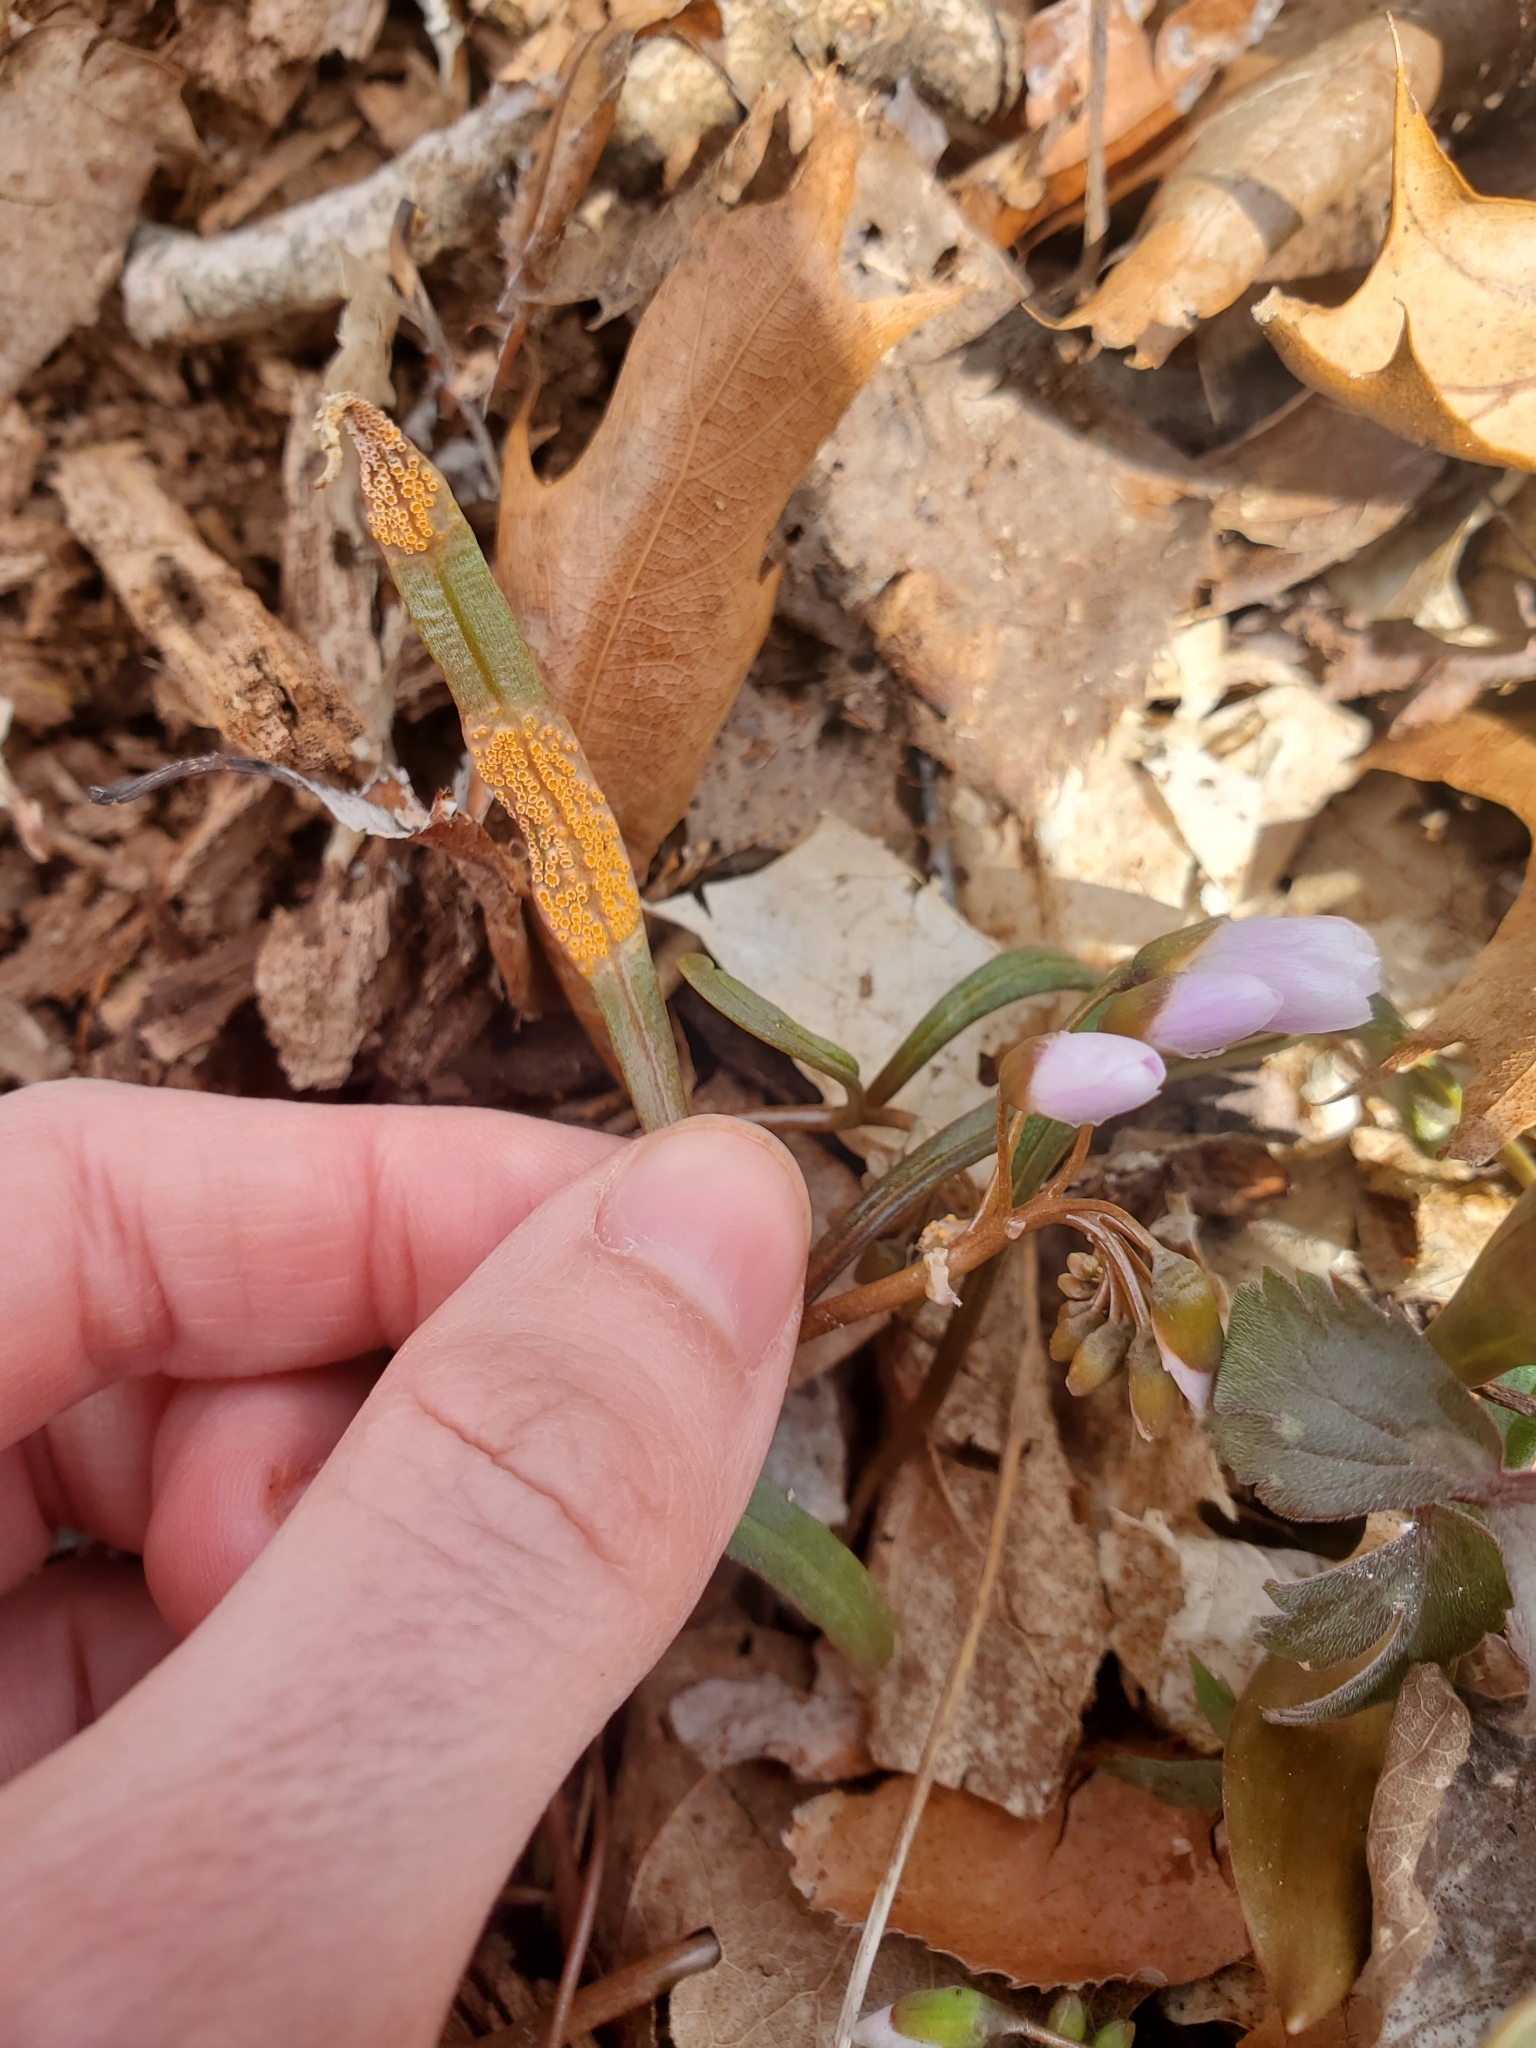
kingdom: Fungi
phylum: Basidiomycota
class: Pucciniomycetes
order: Pucciniales
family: Pucciniaceae
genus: Puccinia
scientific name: Puccinia mariae-wilsoniae
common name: Spring beauty rust
